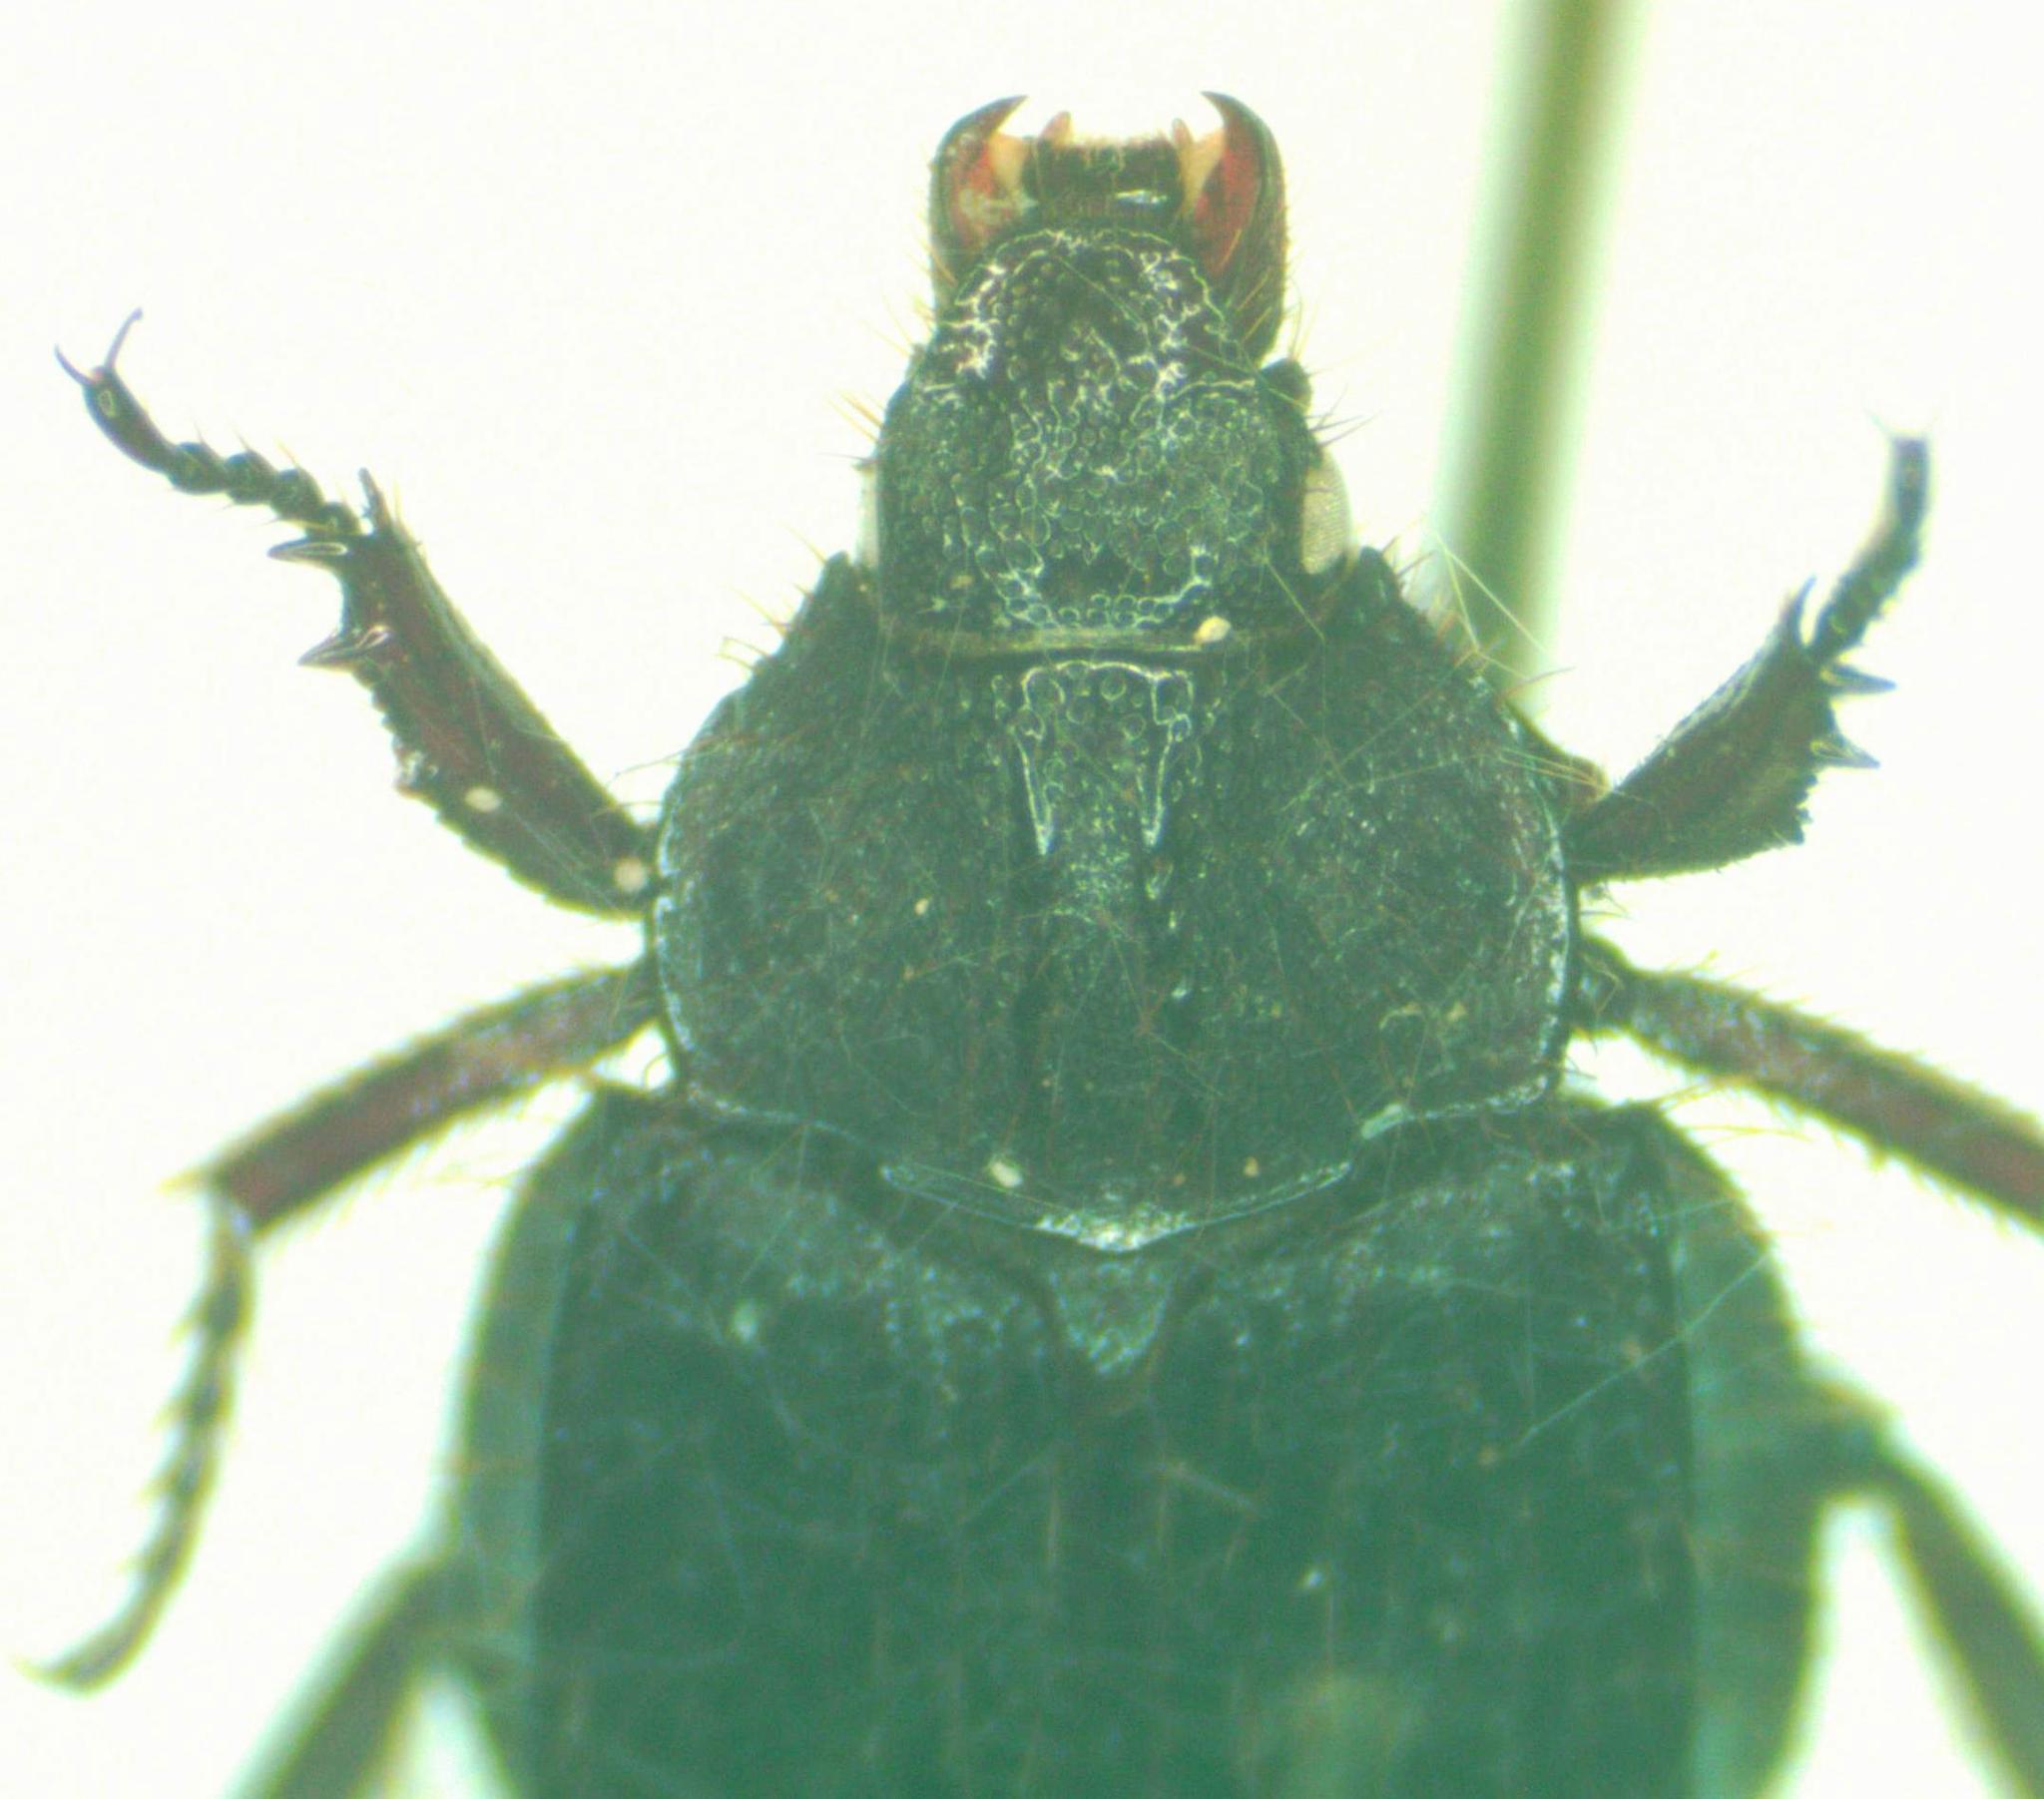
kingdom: Animalia
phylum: Arthropoda
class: Insecta
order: Coleoptera
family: Hybosoridae
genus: Anaides
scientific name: Anaides laticollis
